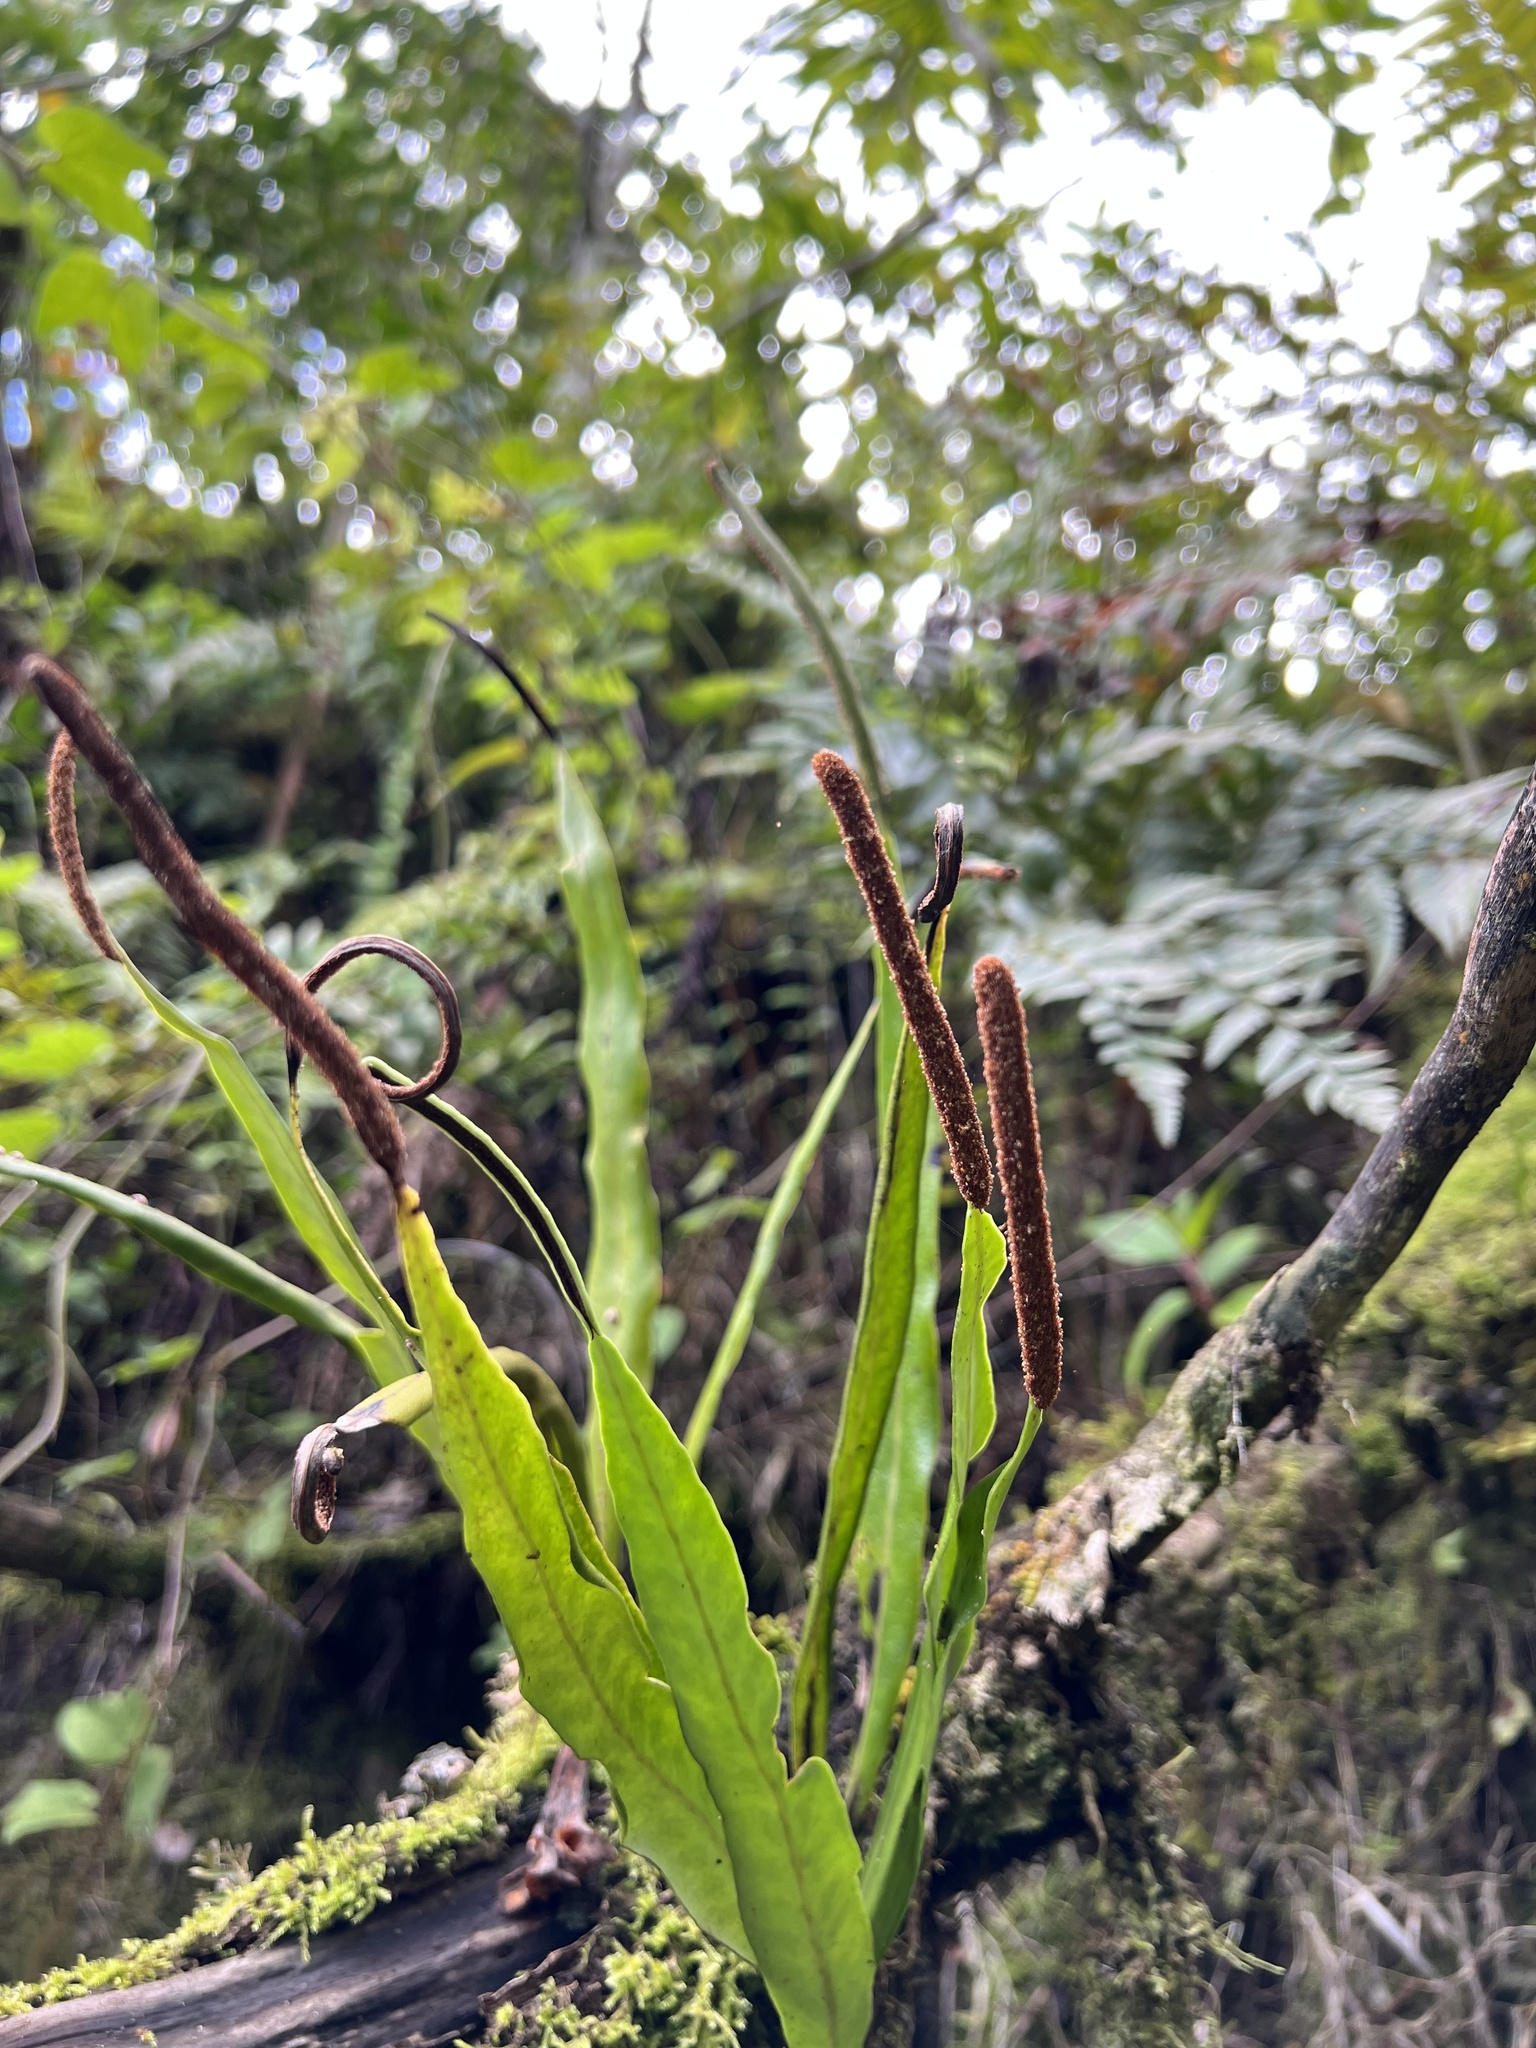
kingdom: Plantae
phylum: Tracheophyta
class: Polypodiopsida
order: Polypodiales
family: Polypodiaceae
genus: Lepisorus
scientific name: Lepisorus mucronatus
